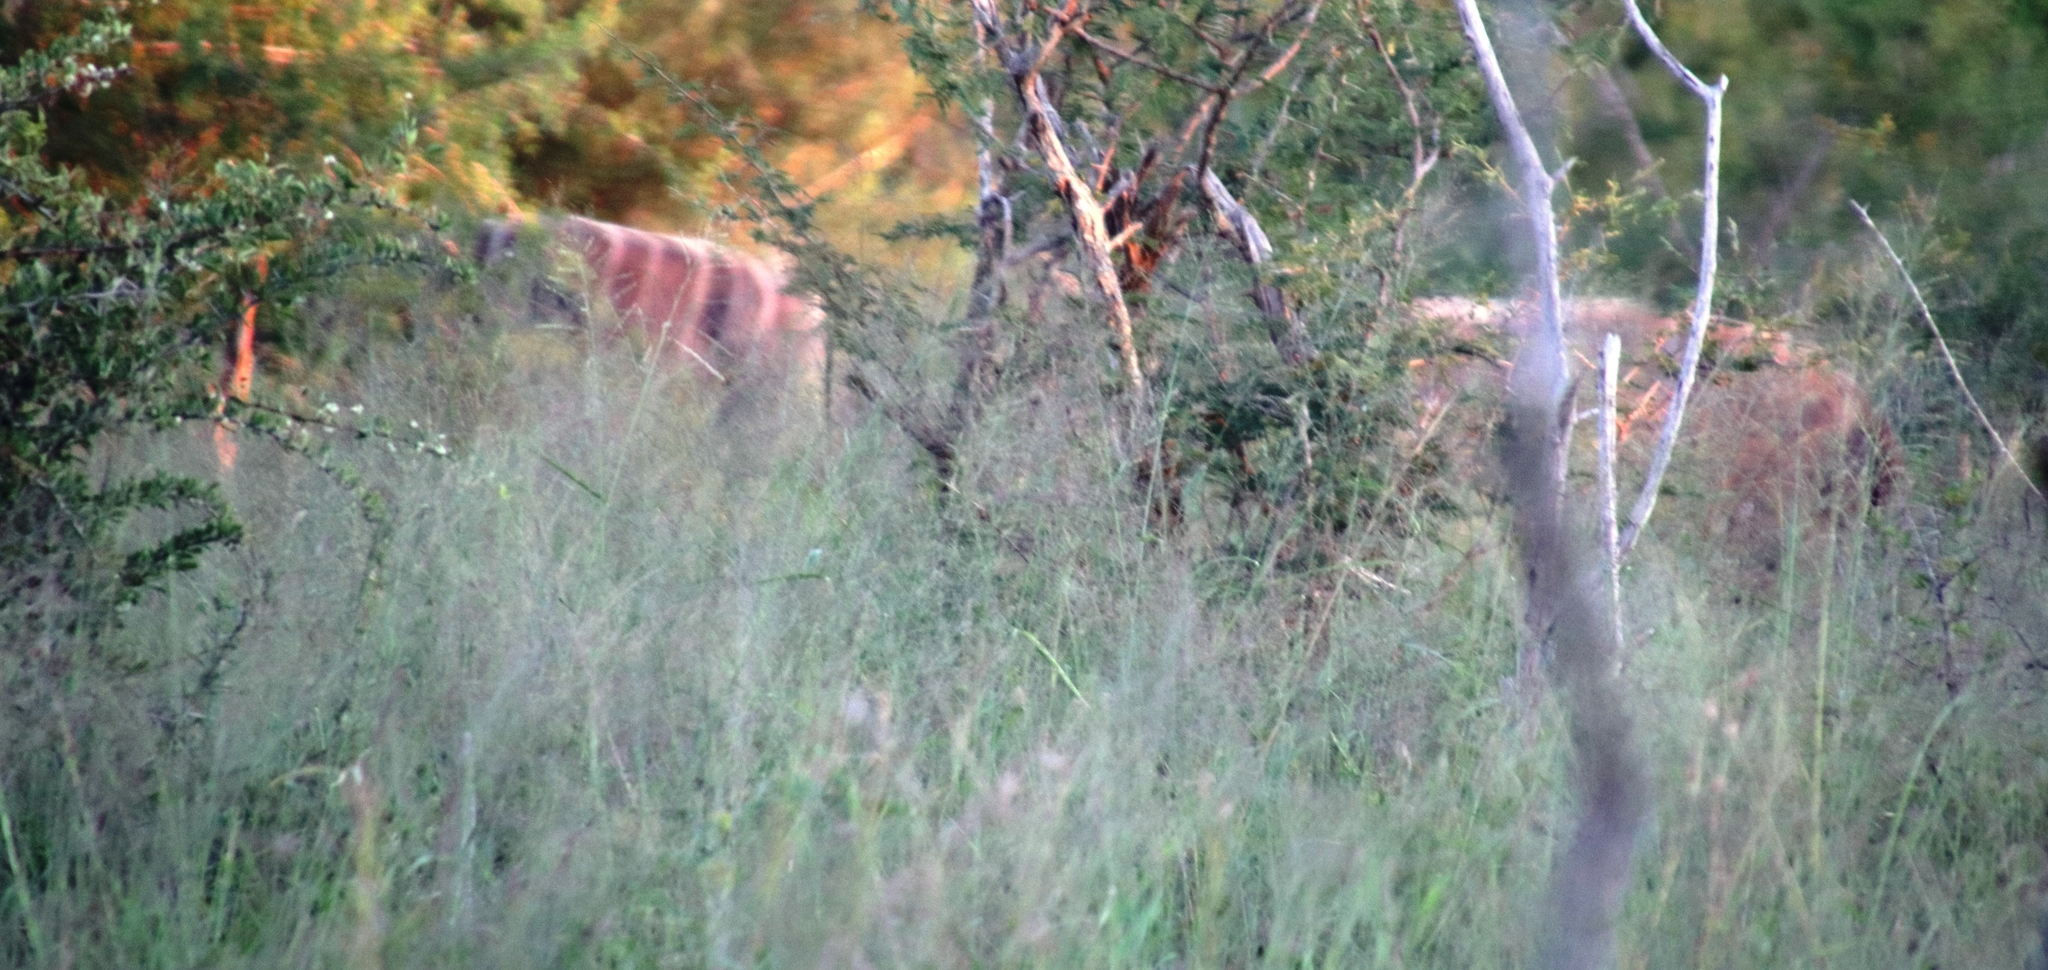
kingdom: Animalia
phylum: Chordata
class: Mammalia
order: Artiodactyla
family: Bovidae
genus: Tragelaphus
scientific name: Tragelaphus angasii
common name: Nyala
